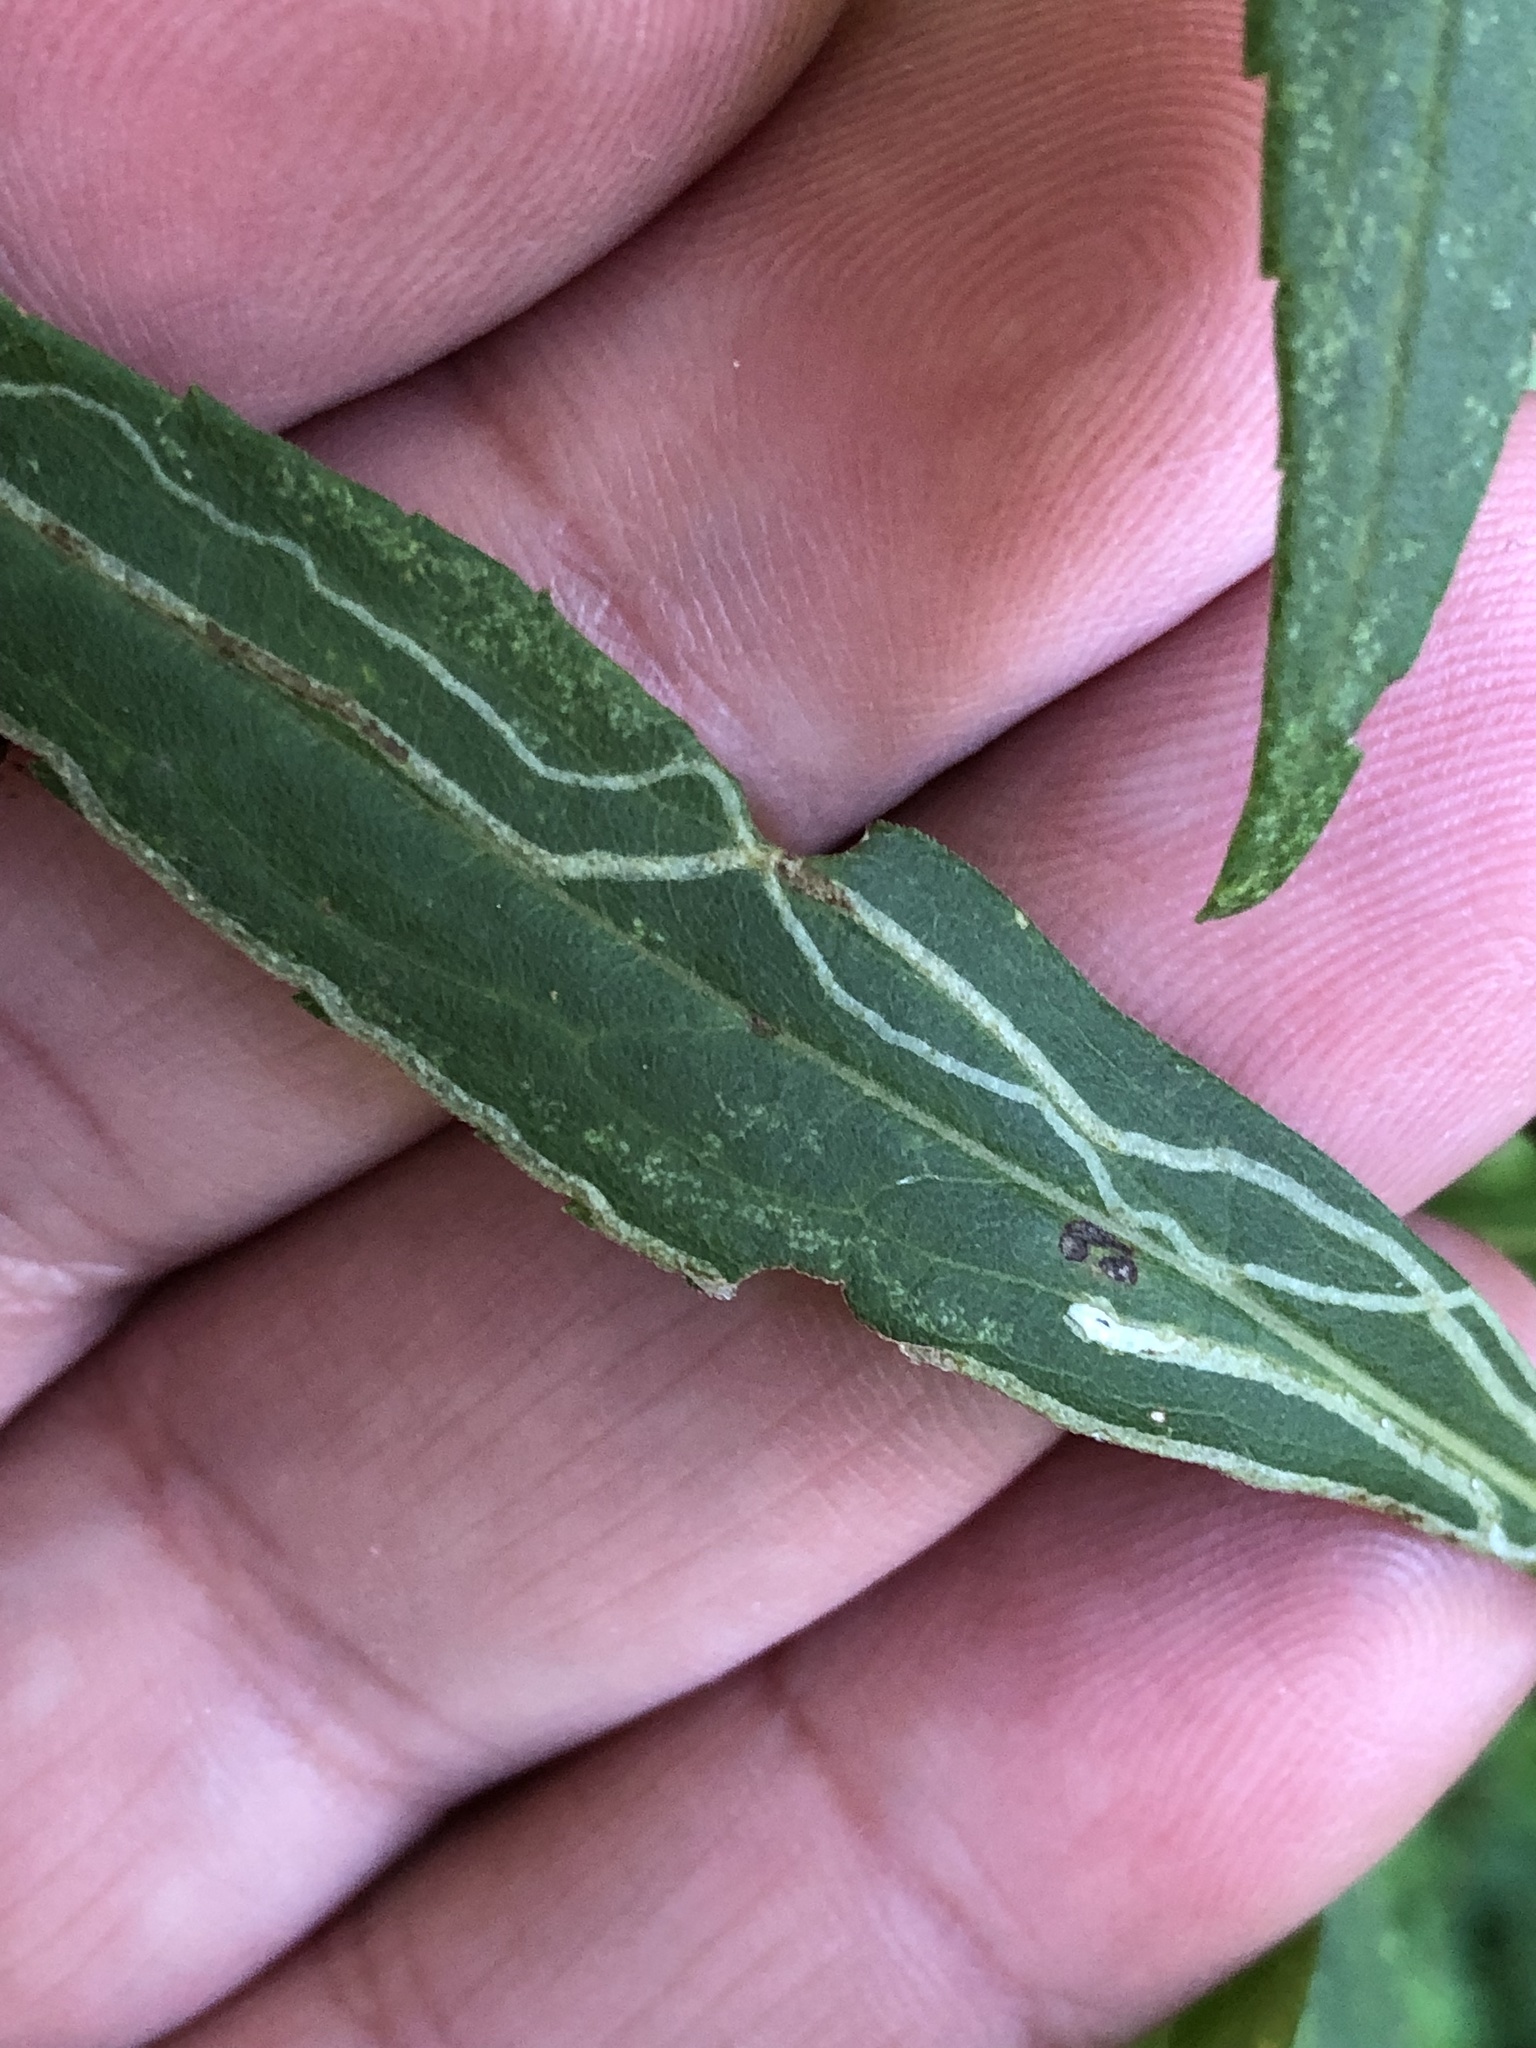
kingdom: Animalia
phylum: Arthropoda
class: Insecta
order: Diptera
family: Agromyzidae
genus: Ophiomyia
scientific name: Ophiomyia maura
